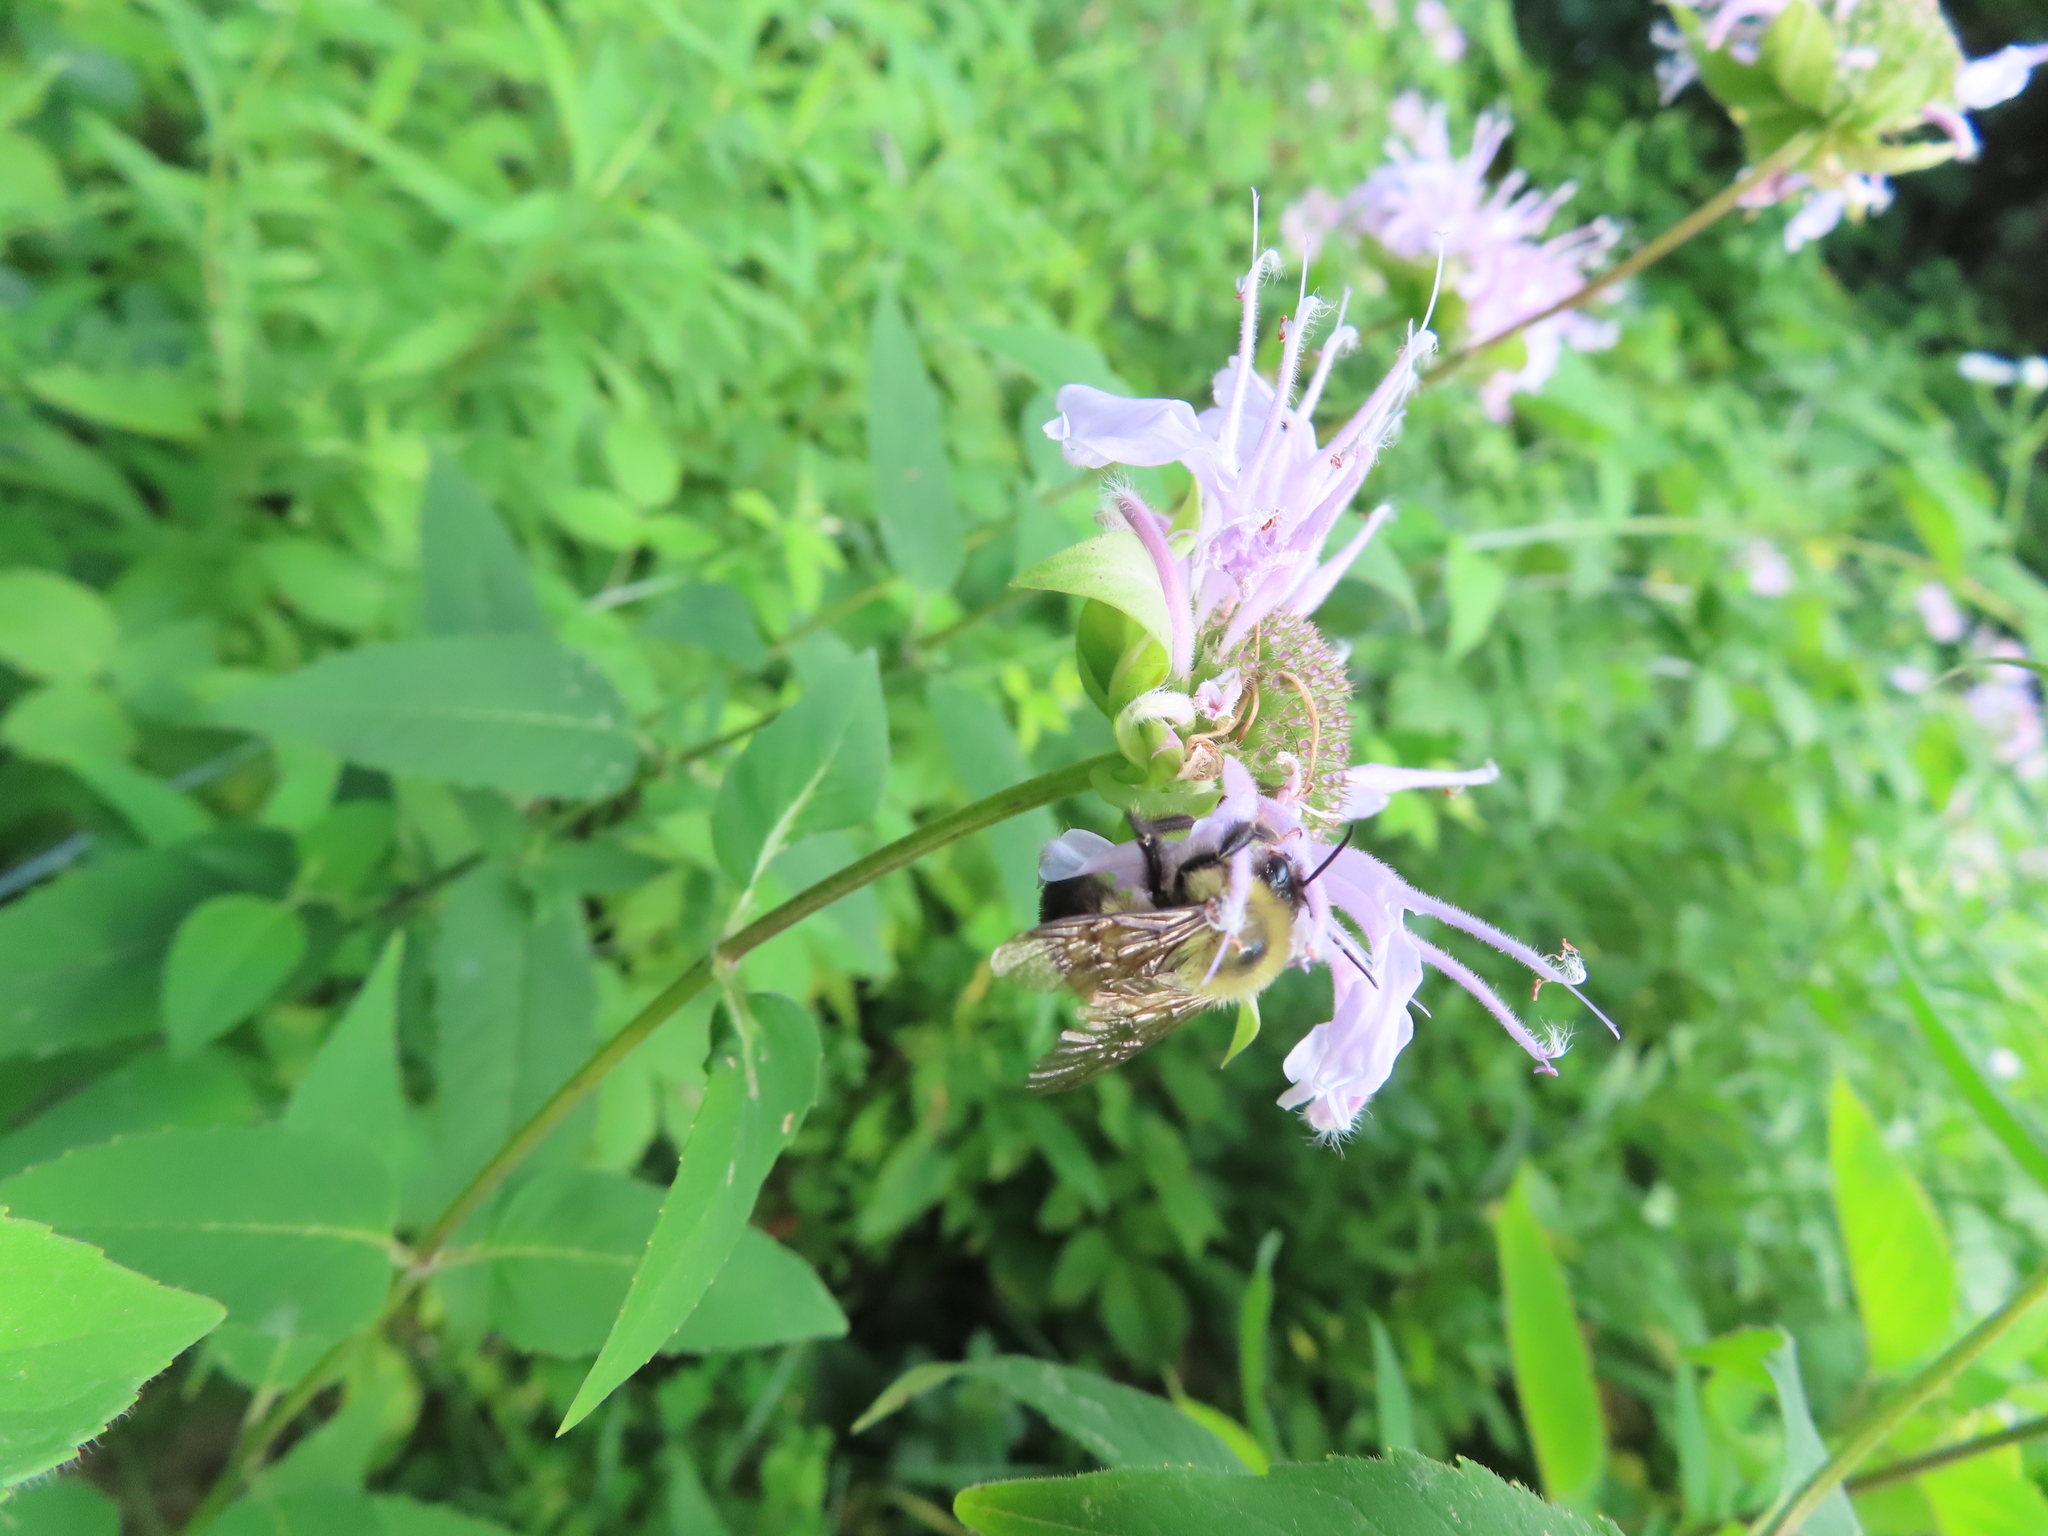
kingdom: Animalia
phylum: Arthropoda
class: Insecta
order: Hymenoptera
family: Apidae
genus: Bombus
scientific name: Bombus bimaculatus
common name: Two-spotted bumble bee
